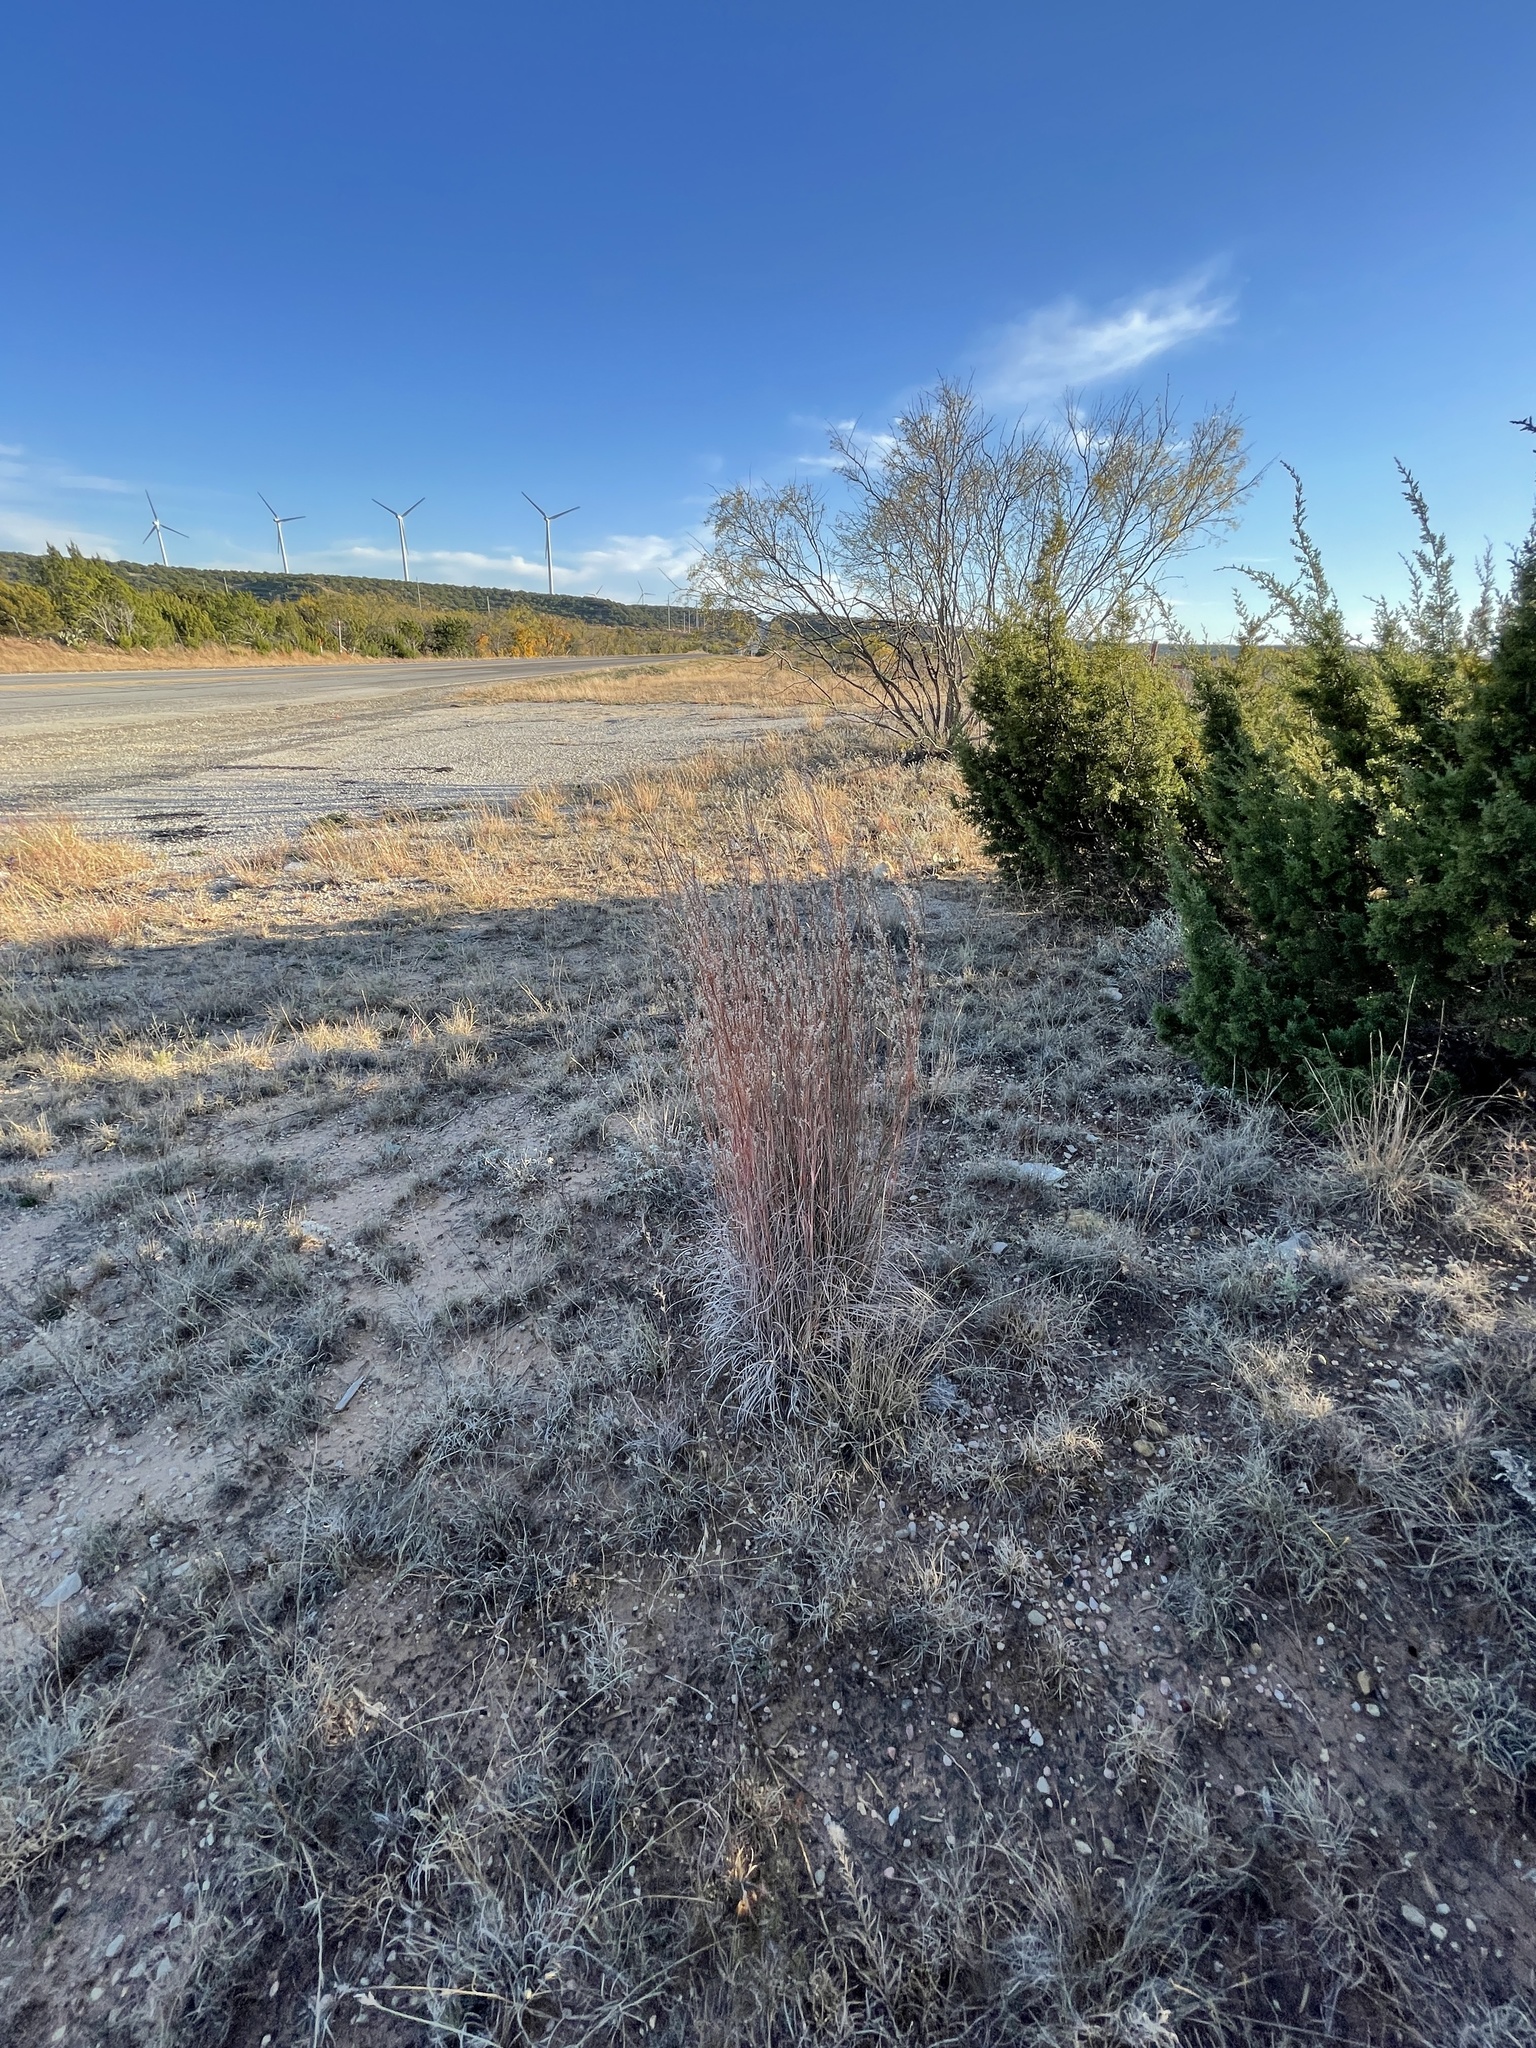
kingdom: Plantae
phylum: Tracheophyta
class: Liliopsida
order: Poales
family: Poaceae
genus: Schizachyrium
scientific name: Schizachyrium scoparium
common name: Little bluestem
